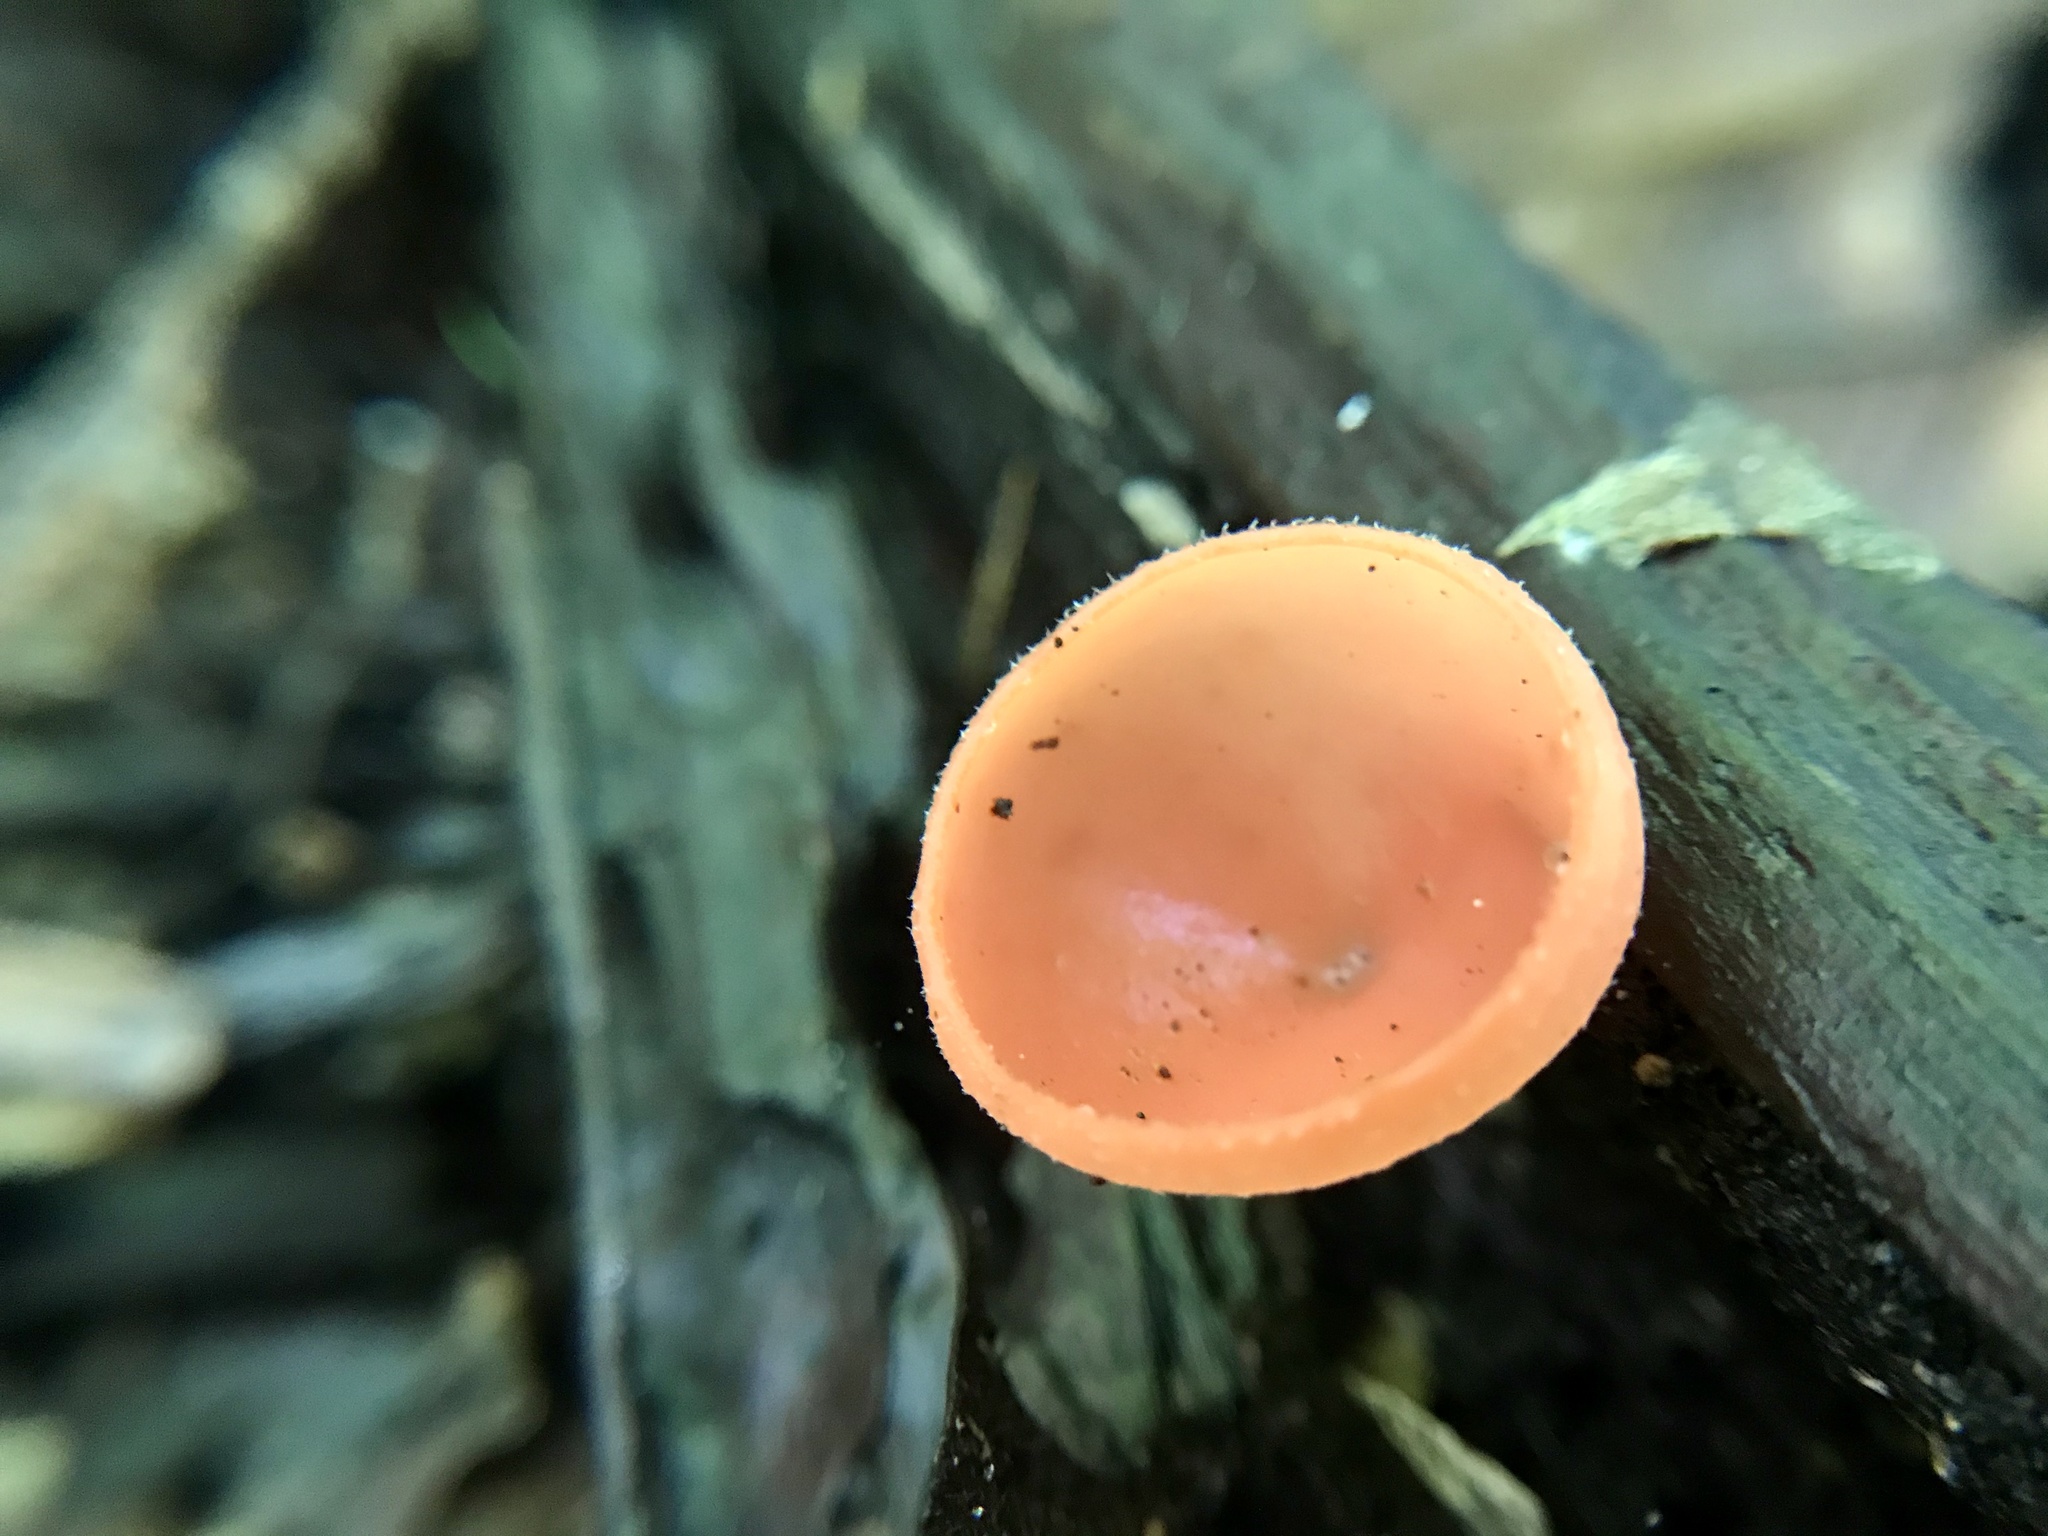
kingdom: Fungi
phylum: Ascomycota
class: Pezizomycetes
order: Pezizales
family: Sarcoscyphaceae
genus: Cookeina
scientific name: Cookeina speciosa
